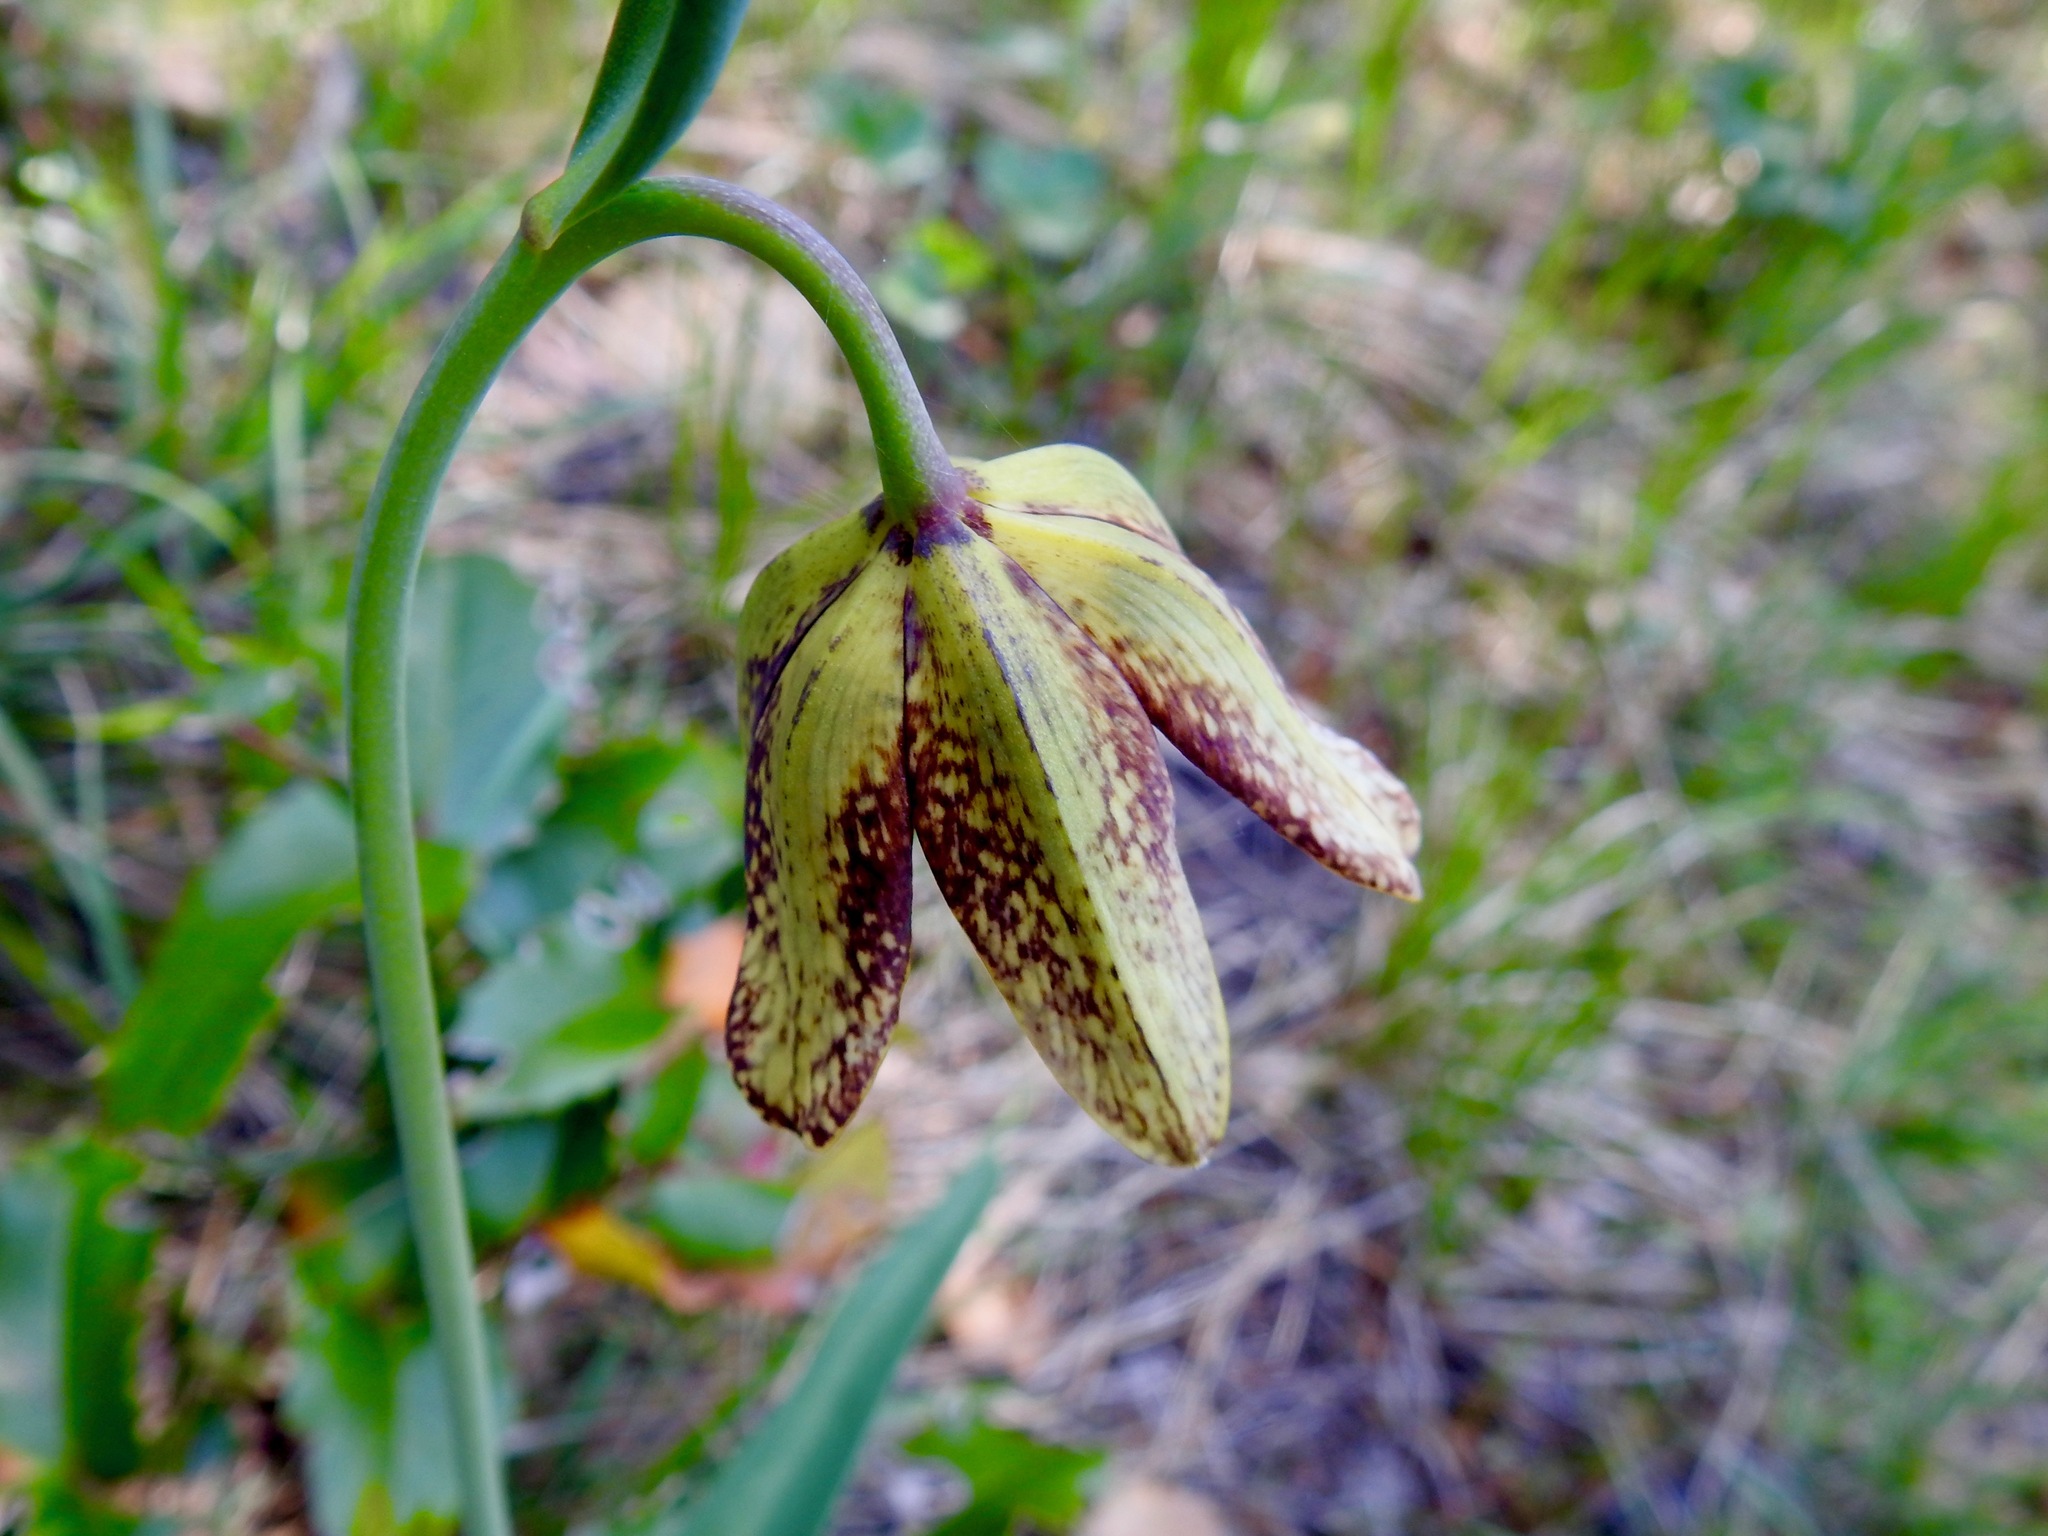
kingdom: Plantae
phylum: Tracheophyta
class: Liliopsida
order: Liliales
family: Liliaceae
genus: Fritillaria
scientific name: Fritillaria affinis
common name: Ojai fritillary
